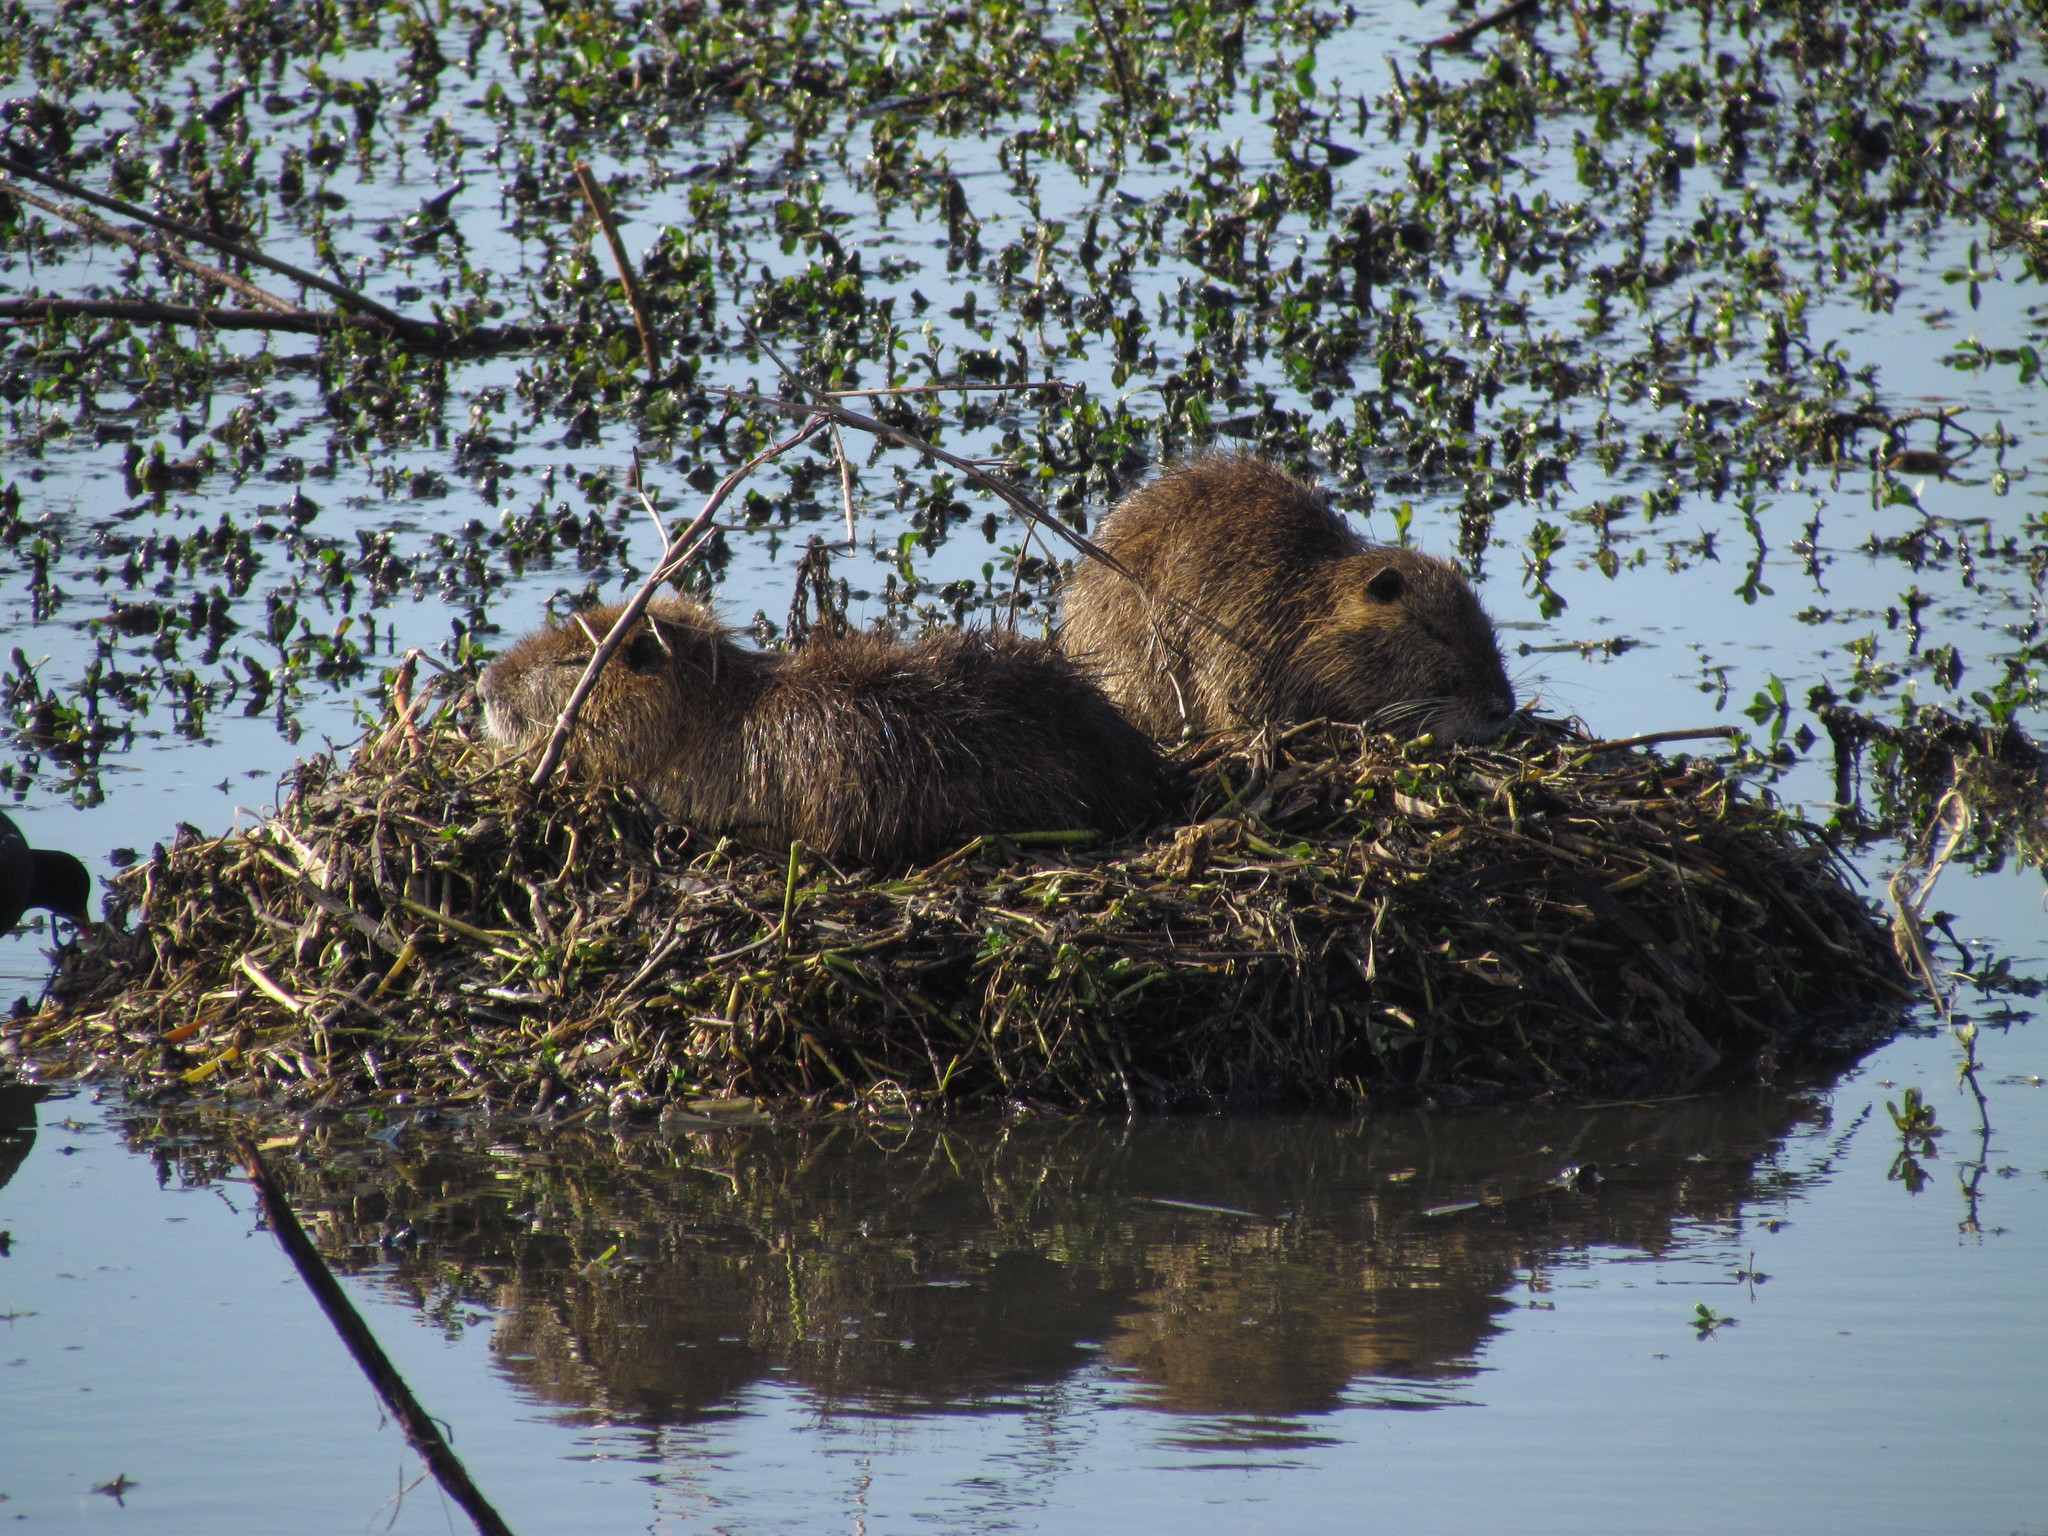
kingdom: Animalia
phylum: Chordata
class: Mammalia
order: Rodentia
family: Myocastoridae
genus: Myocastor
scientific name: Myocastor coypus
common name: Coypu
